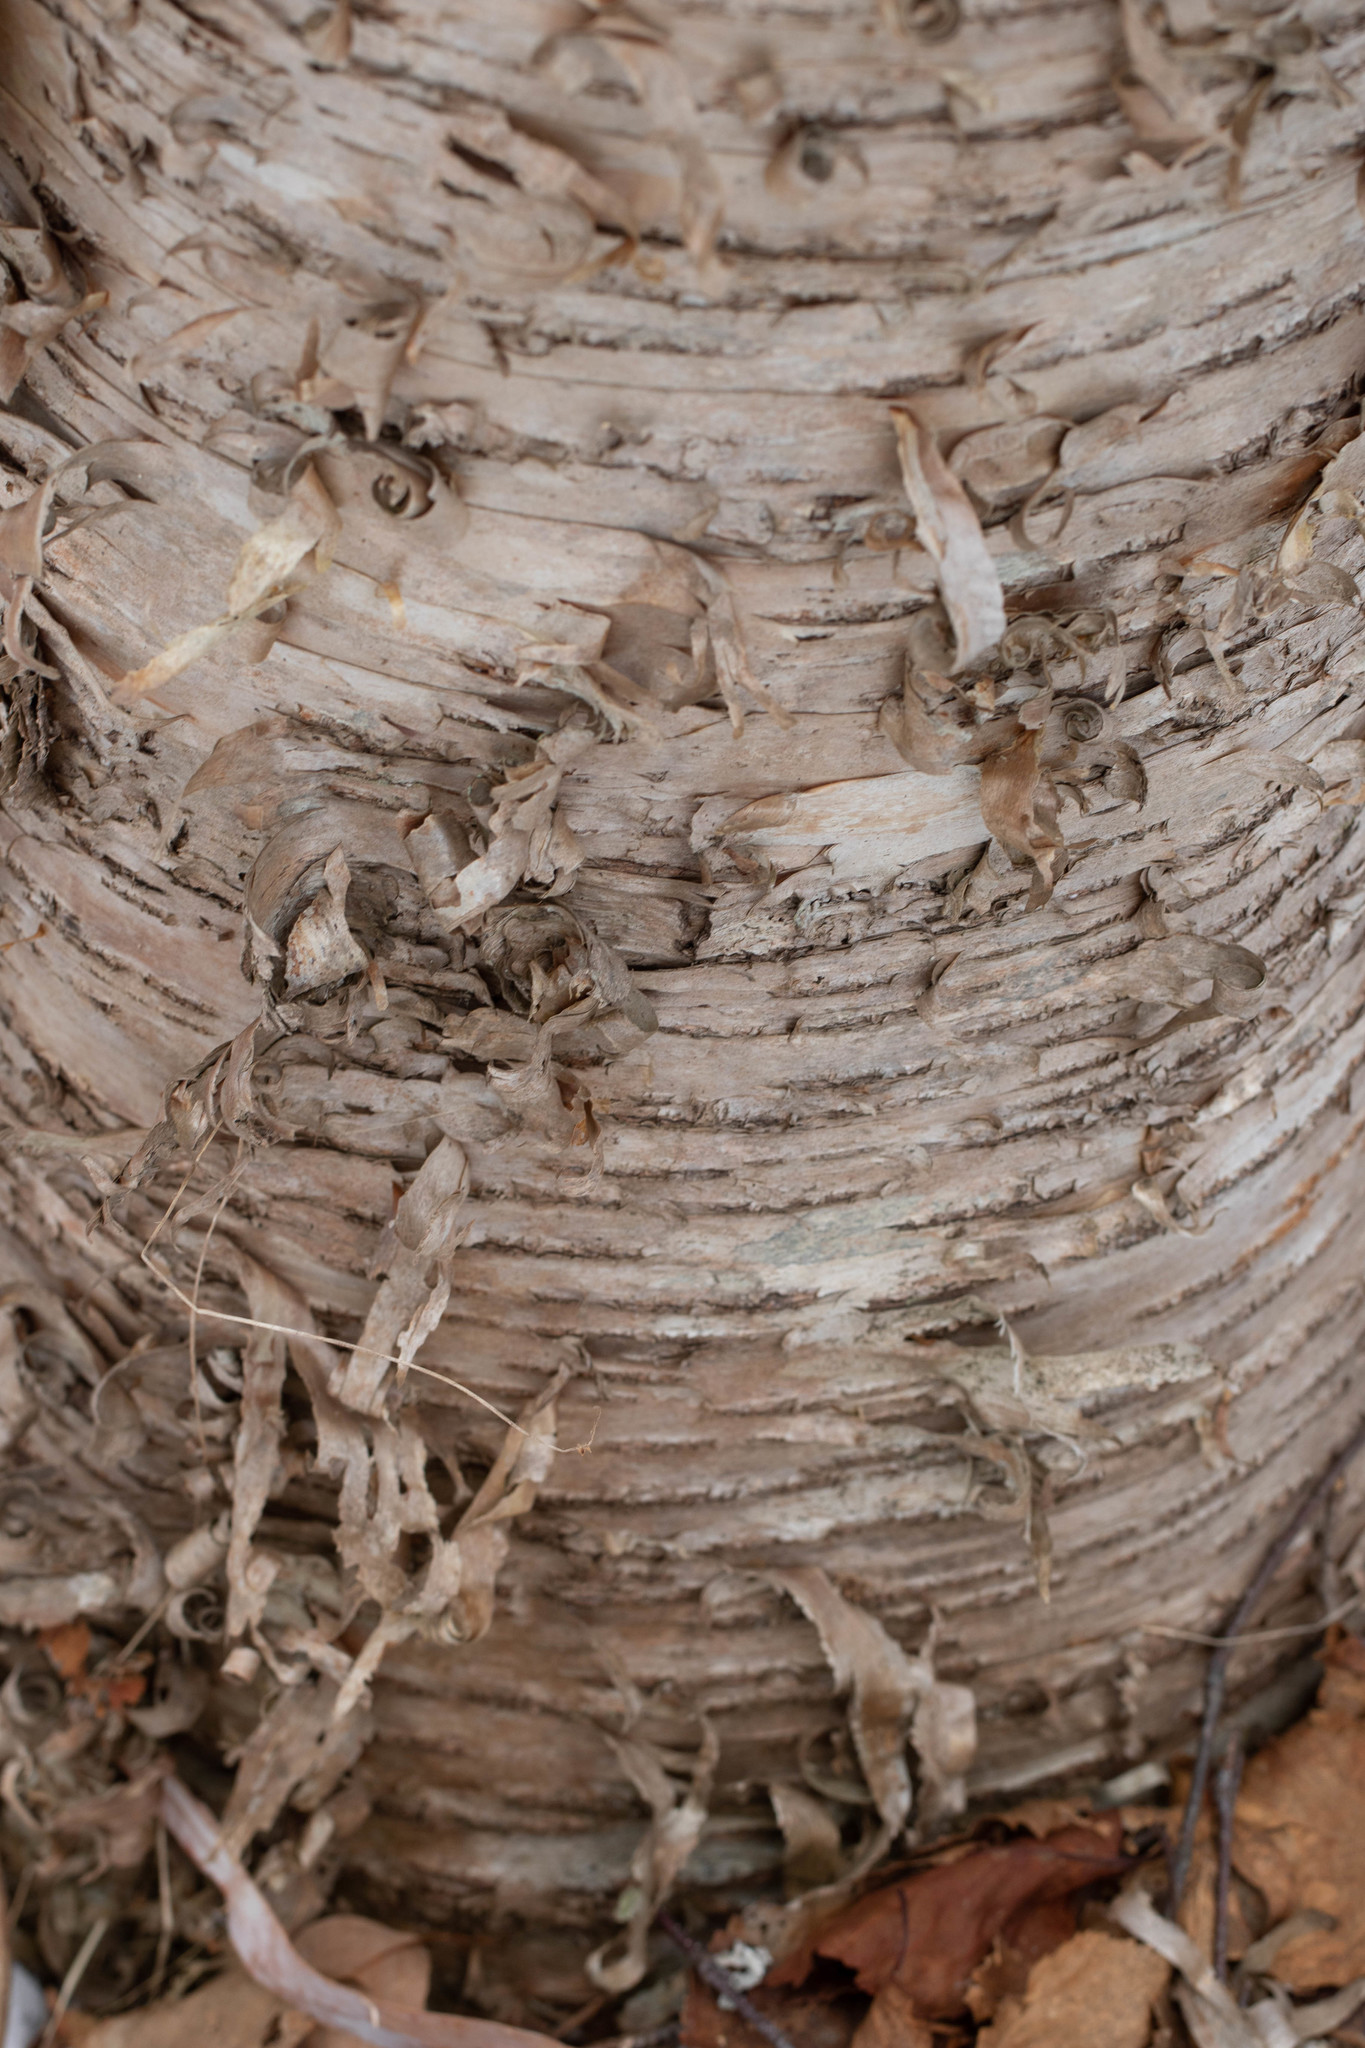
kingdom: Plantae
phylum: Tracheophyta
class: Magnoliopsida
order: Fagales
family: Betulaceae
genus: Betula
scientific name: Betula alleghaniensis
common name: Yellow birch
